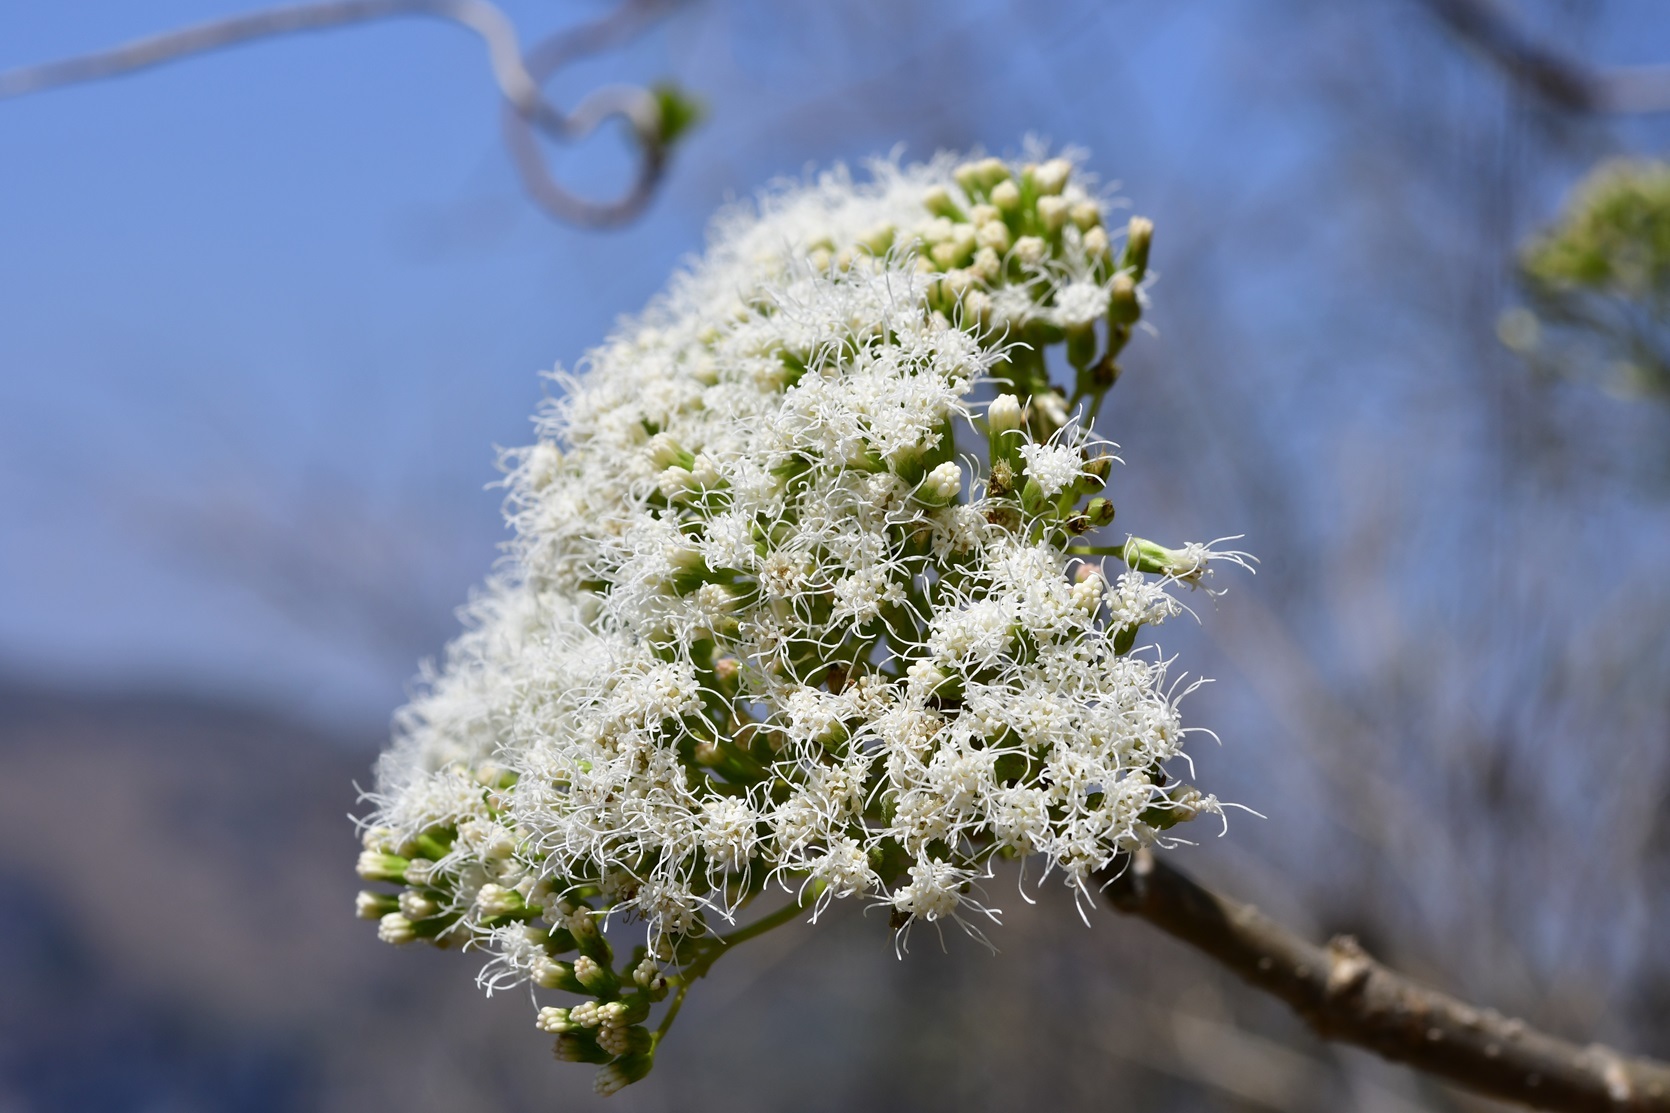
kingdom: Plantae
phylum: Tracheophyta
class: Magnoliopsida
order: Asterales
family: Asteraceae
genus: Ageratina
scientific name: Ageratina crassiramea
